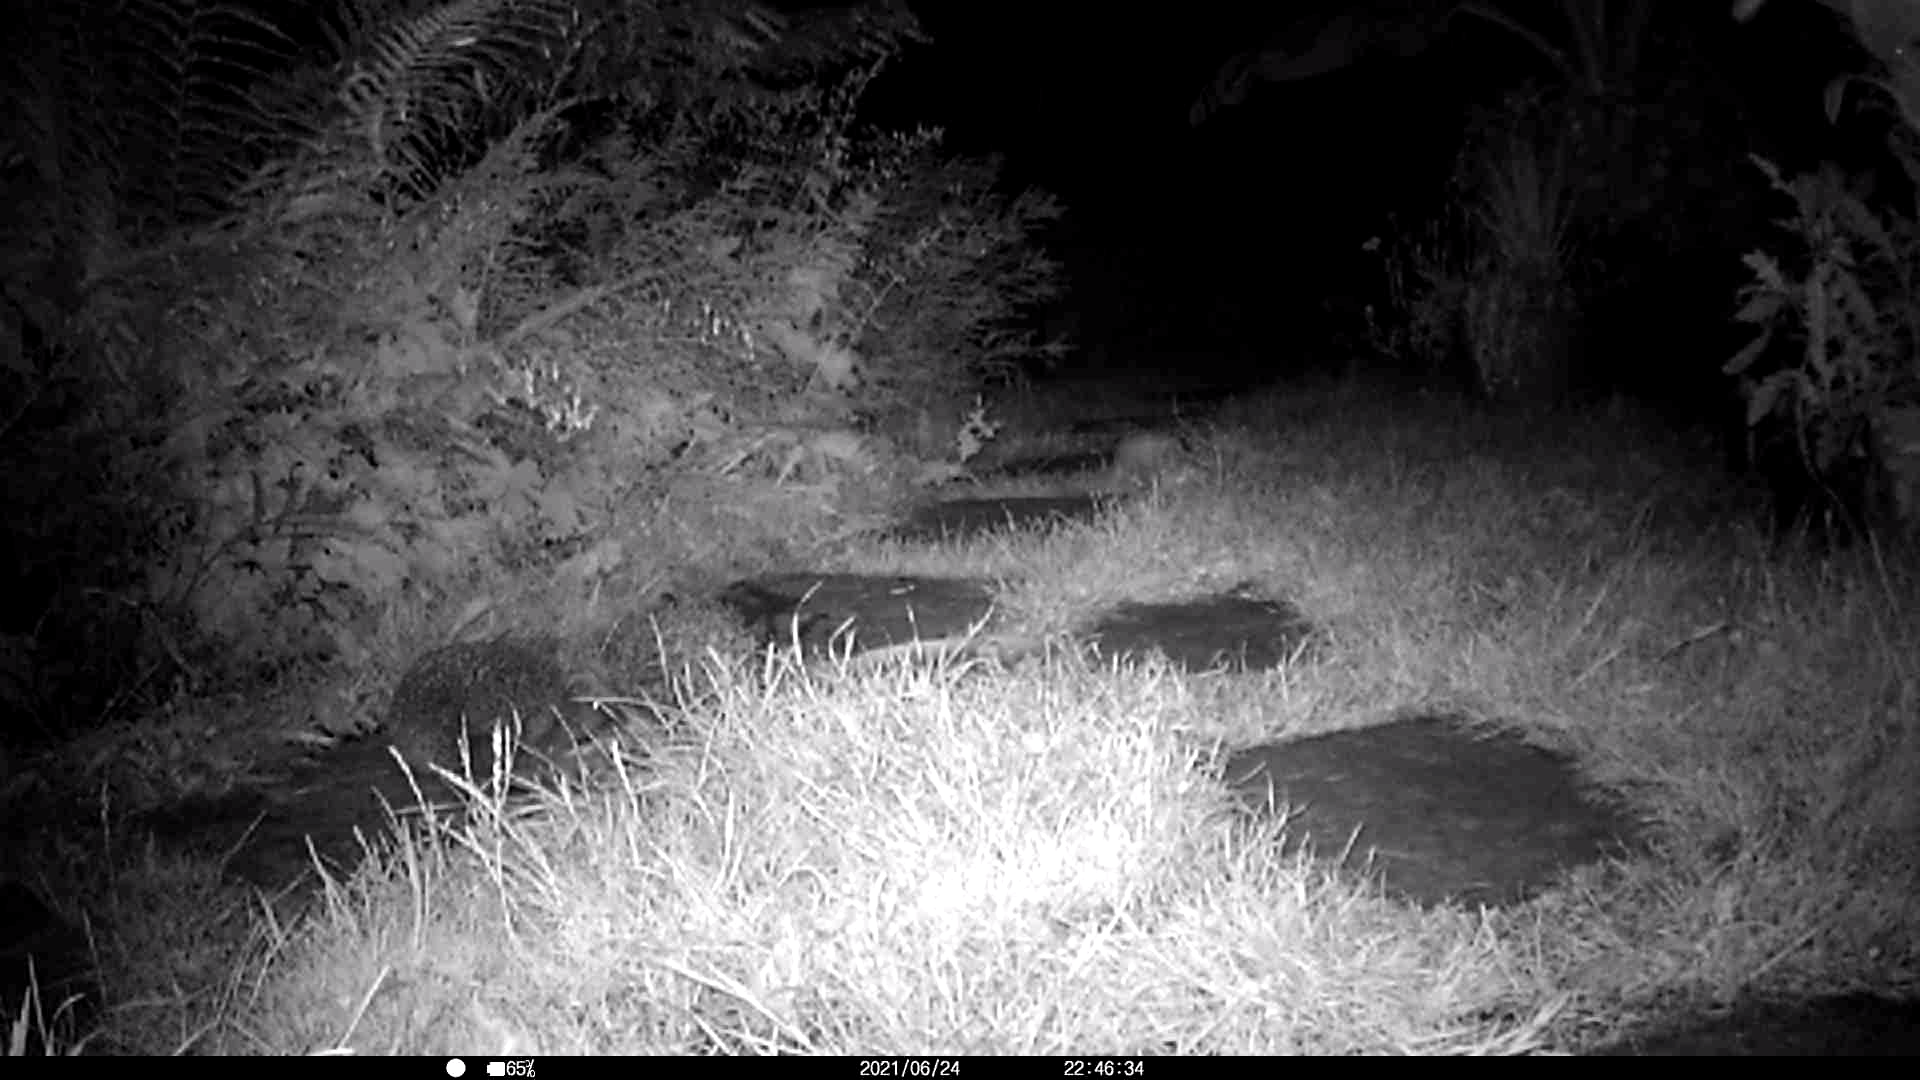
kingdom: Animalia
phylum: Chordata
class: Mammalia
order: Erinaceomorpha
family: Erinaceidae
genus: Erinaceus
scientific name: Erinaceus europaeus
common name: West european hedgehog
